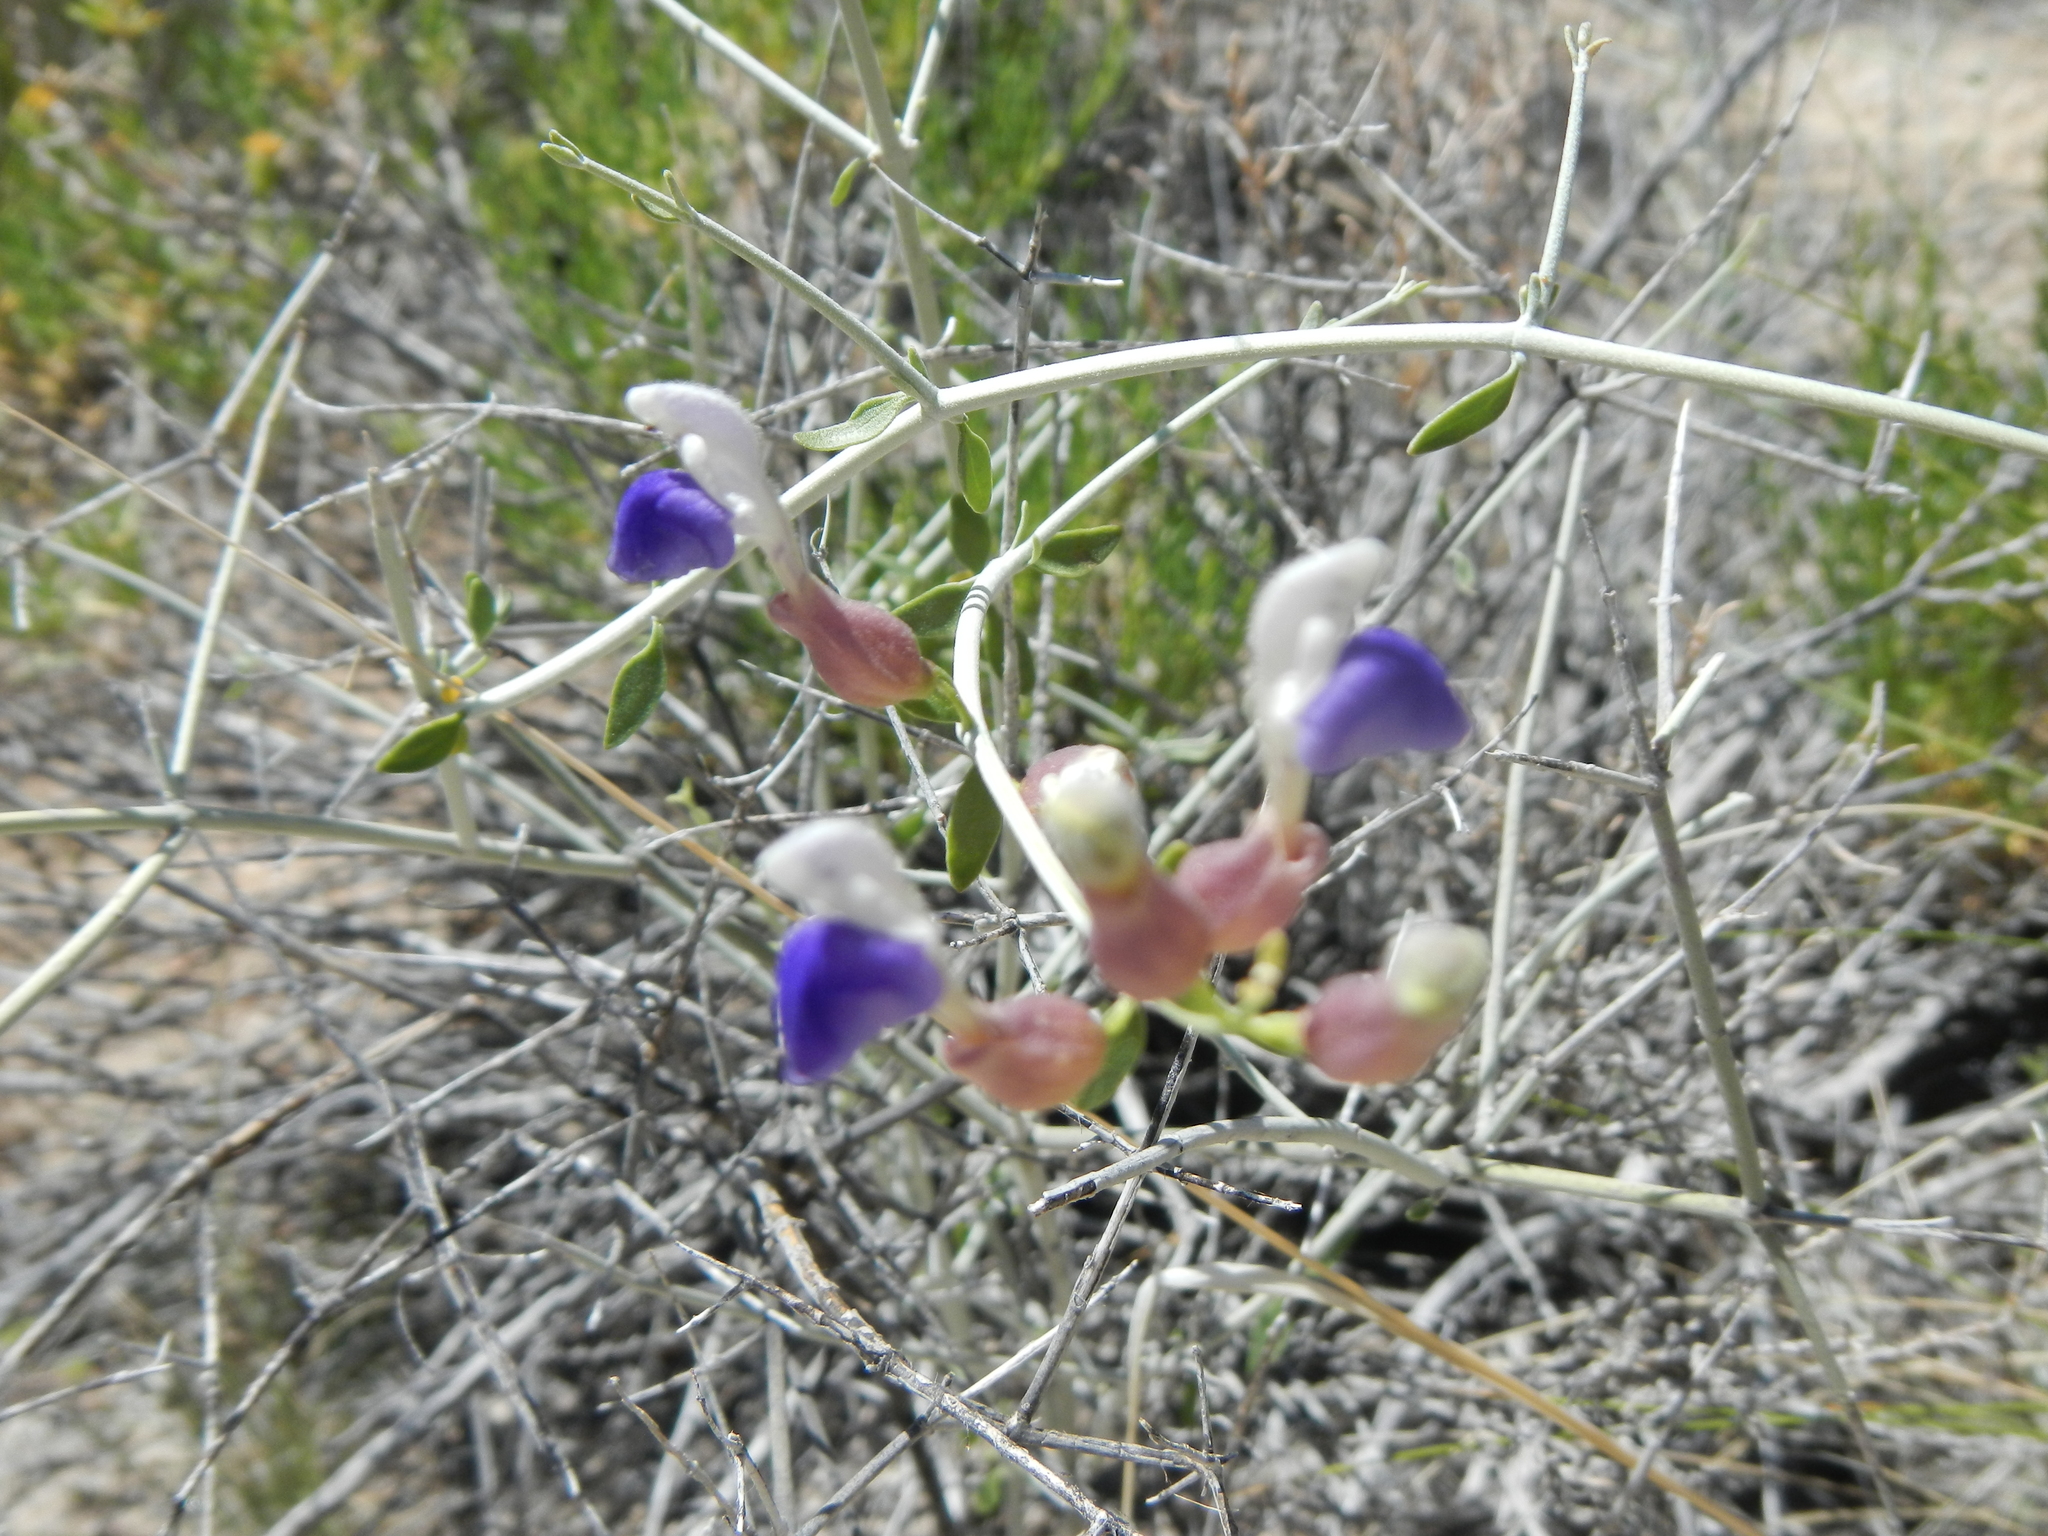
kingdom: Plantae
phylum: Tracheophyta
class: Magnoliopsida
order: Lamiales
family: Lamiaceae
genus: Scutellaria
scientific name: Scutellaria mexicana
